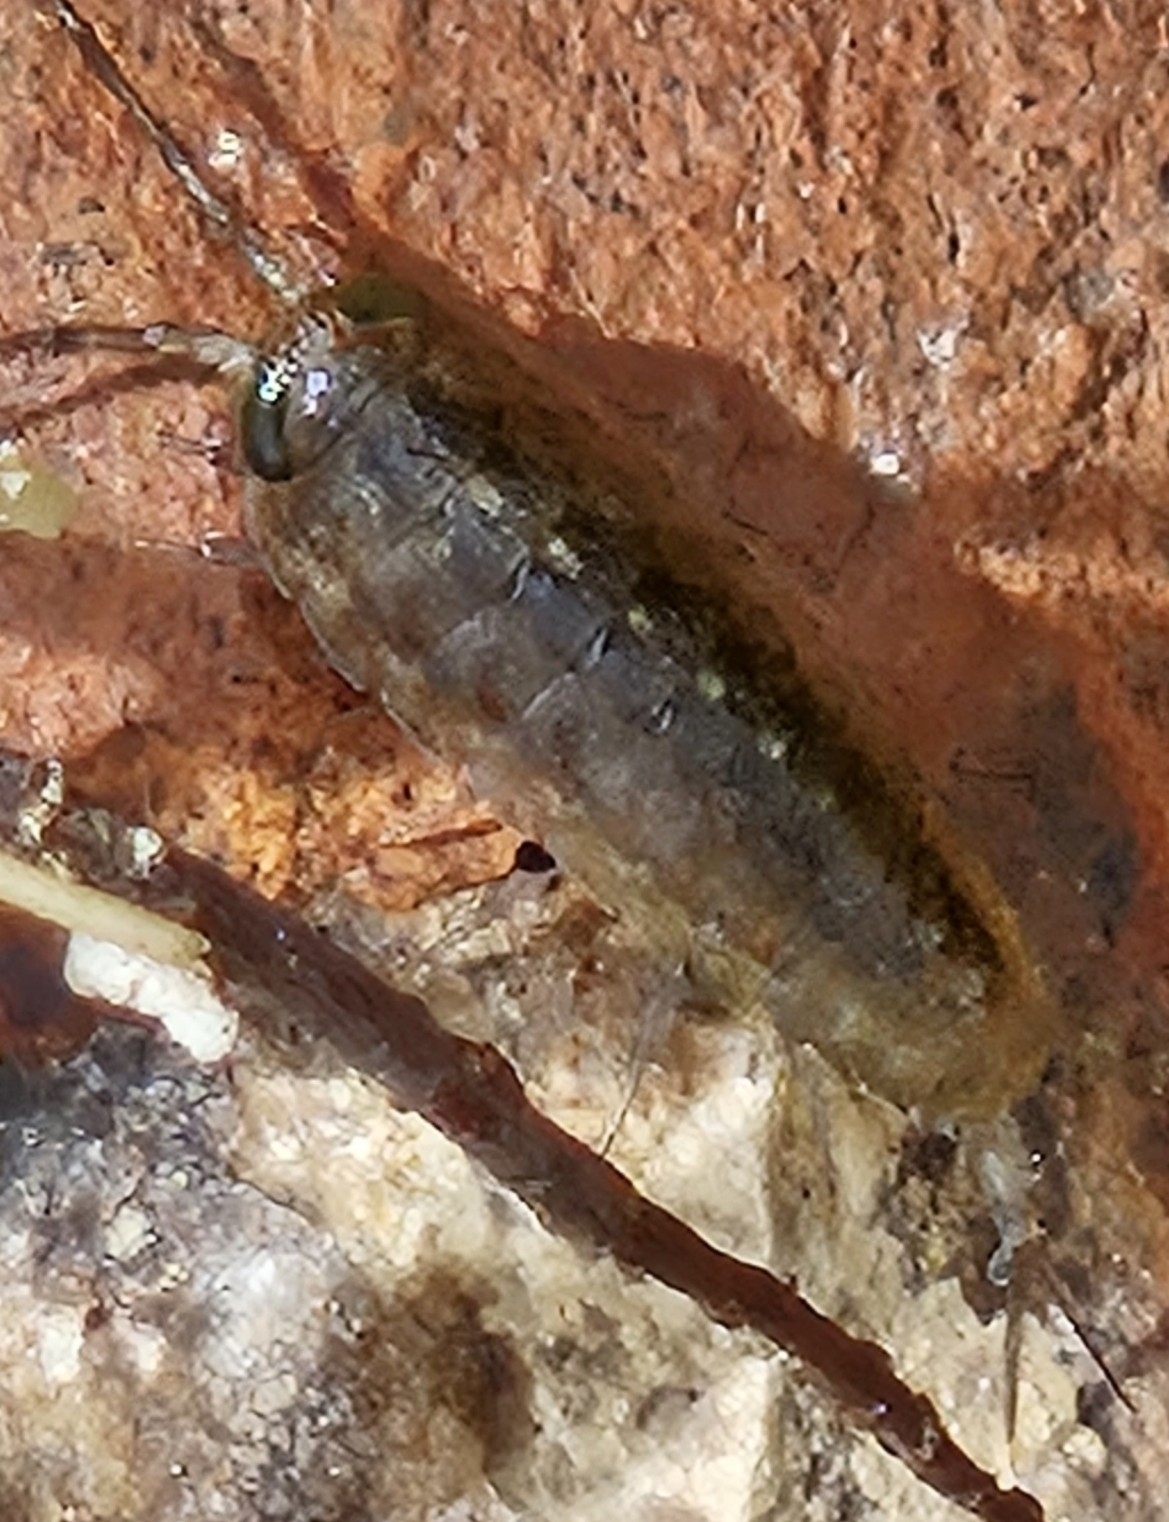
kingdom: Animalia
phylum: Arthropoda
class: Malacostraca
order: Isopoda
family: Ligiidae
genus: Ligia
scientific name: Ligia occidentalis
